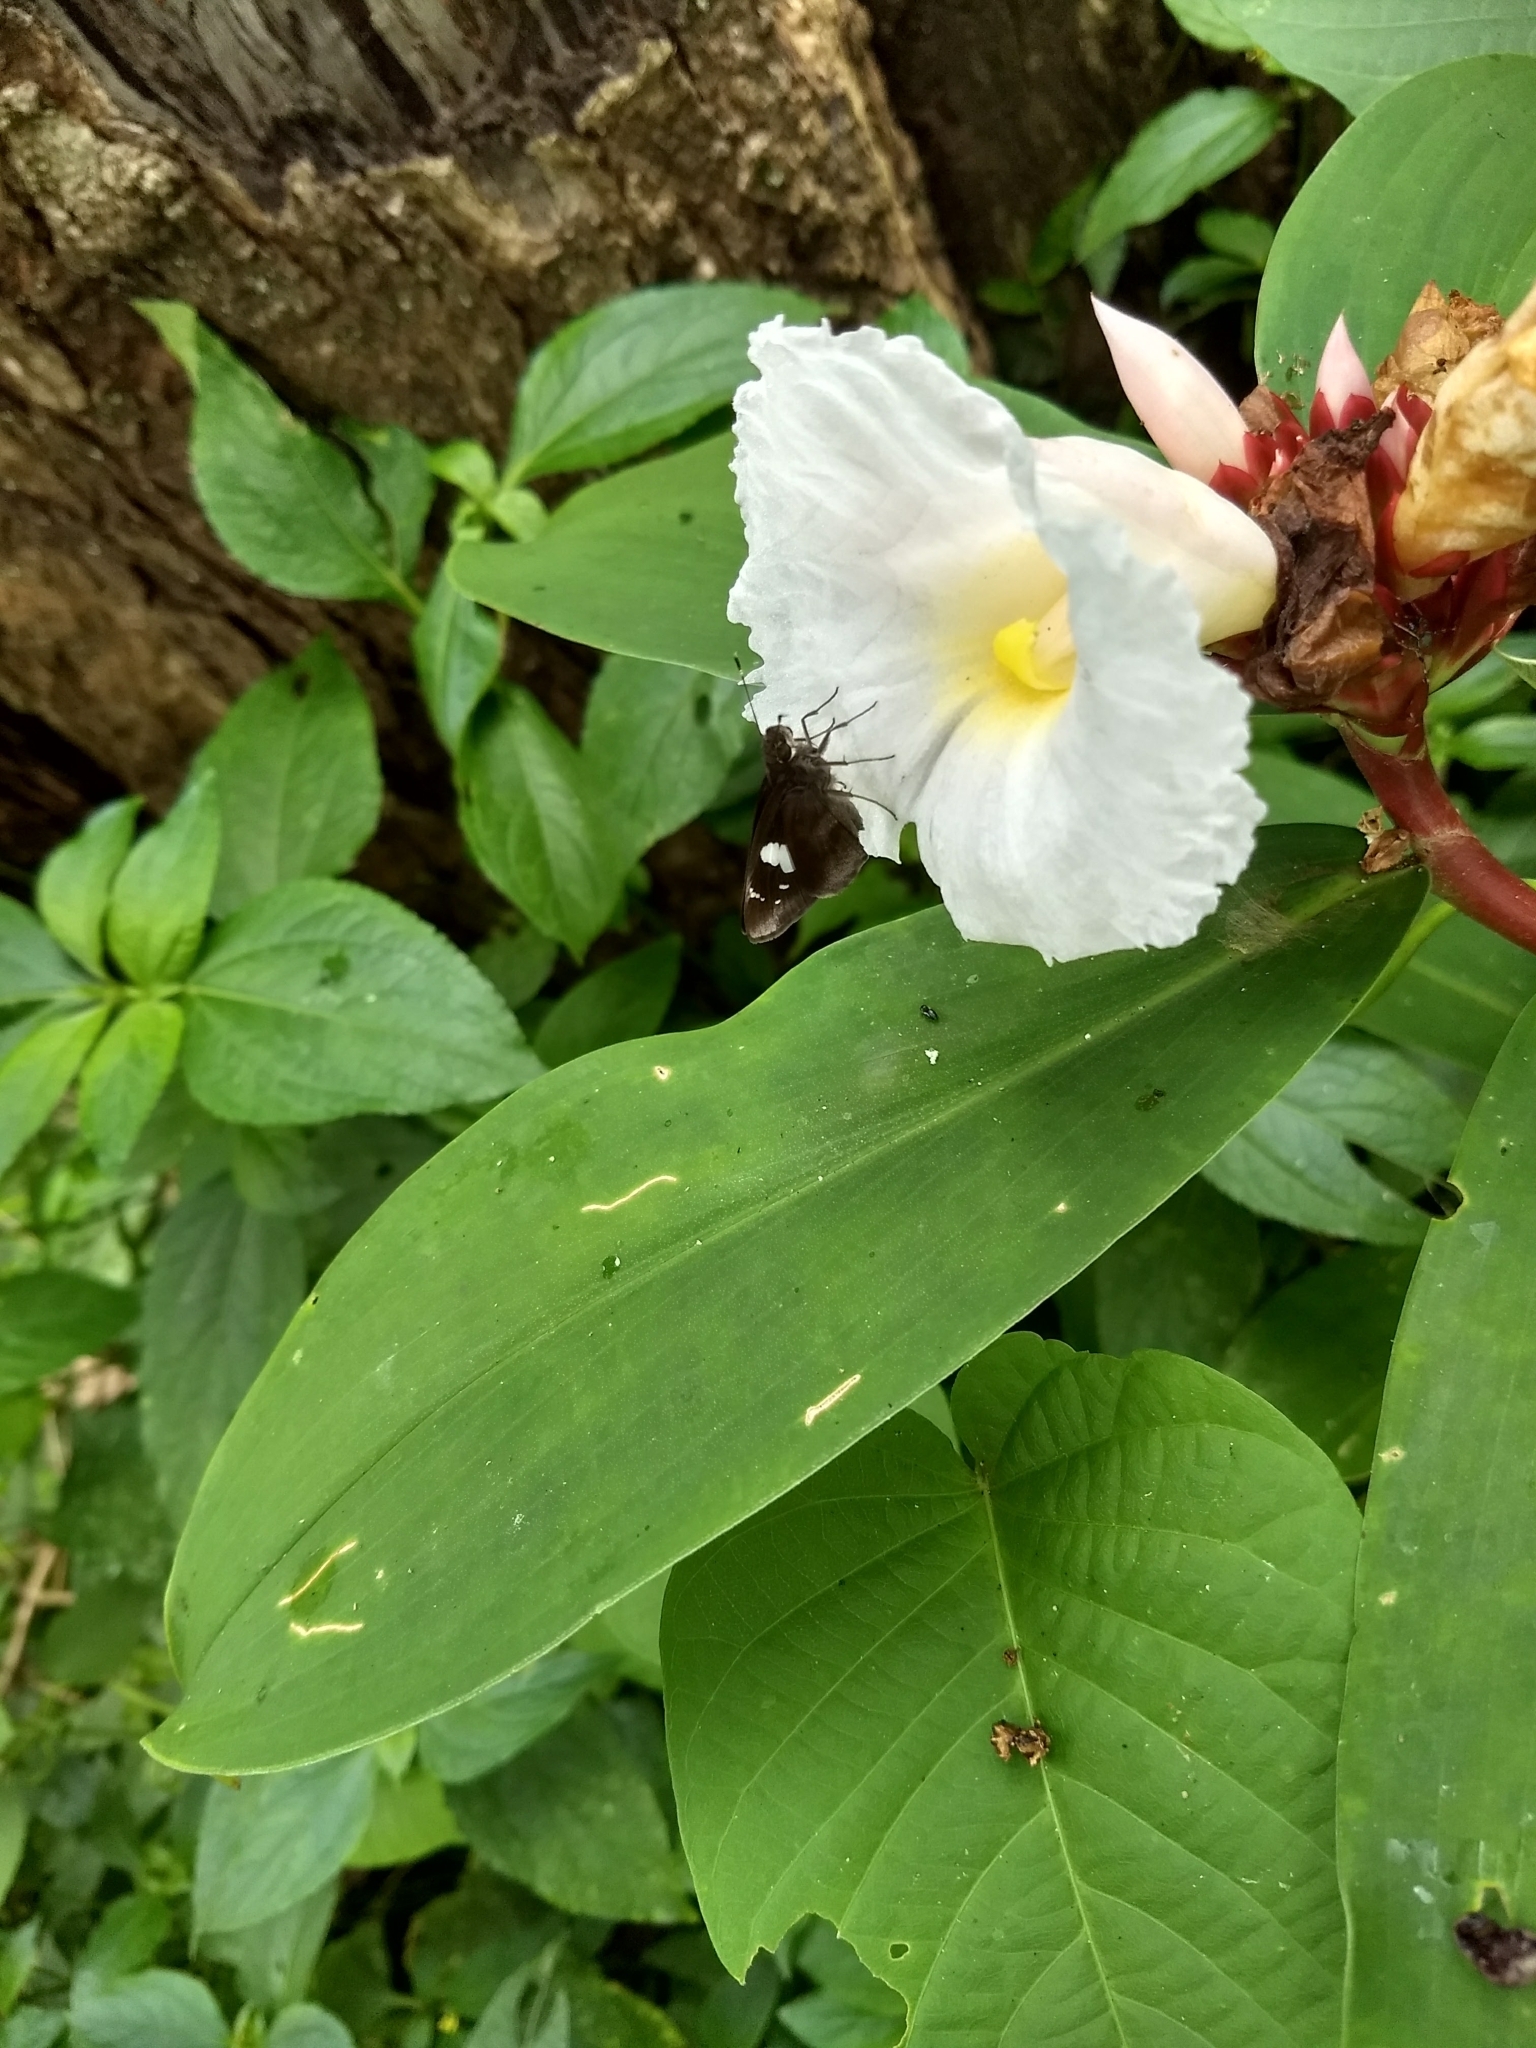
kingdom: Animalia
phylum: Arthropoda
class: Insecta
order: Lepidoptera
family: Hesperiidae
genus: Notocrypta
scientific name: Notocrypta curvifascia
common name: Restricted demon
